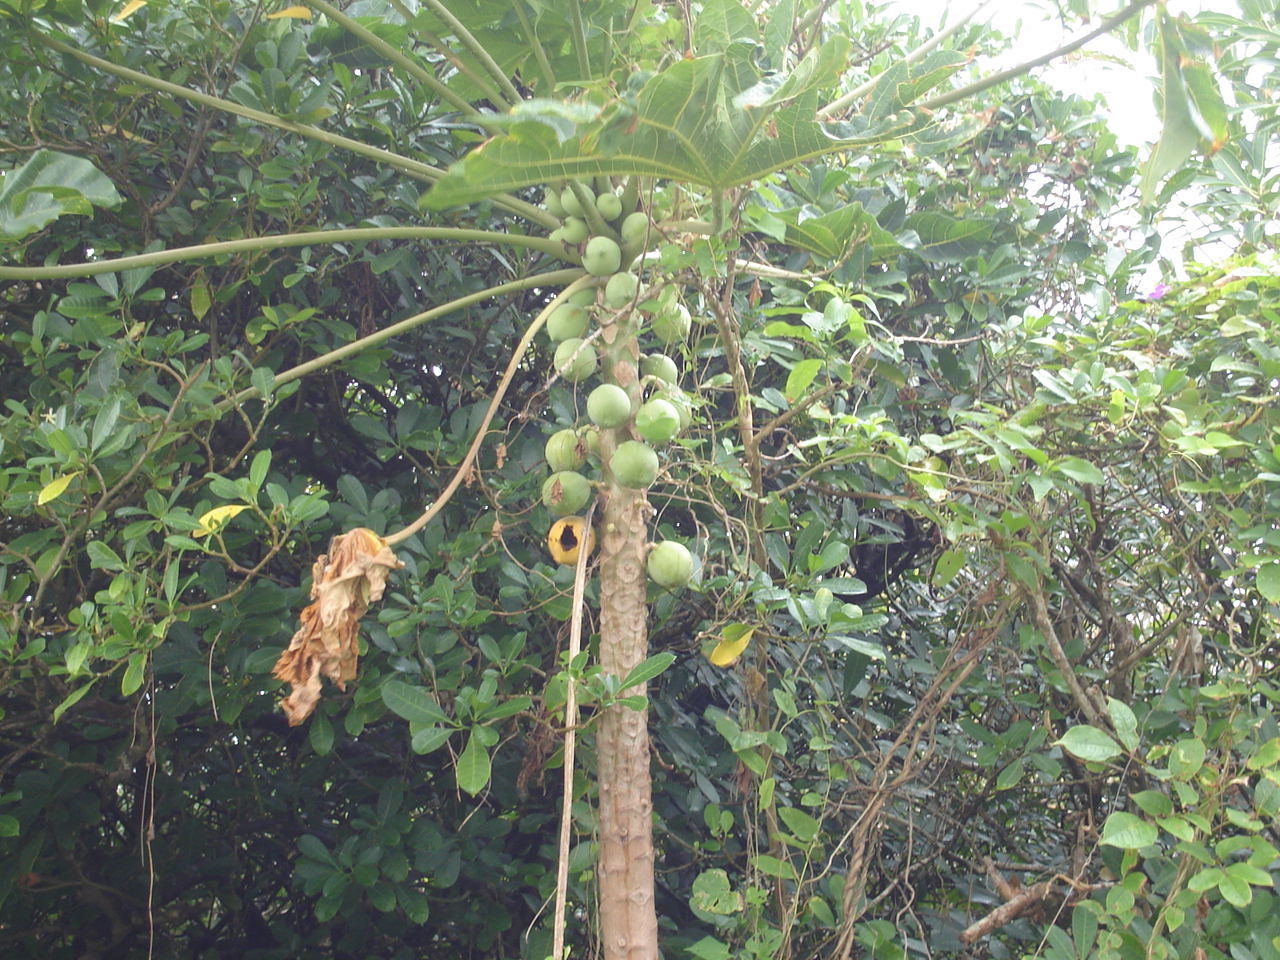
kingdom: Plantae
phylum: Tracheophyta
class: Magnoliopsida
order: Brassicales
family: Caricaceae
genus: Carica
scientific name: Carica papaya
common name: Papaya
